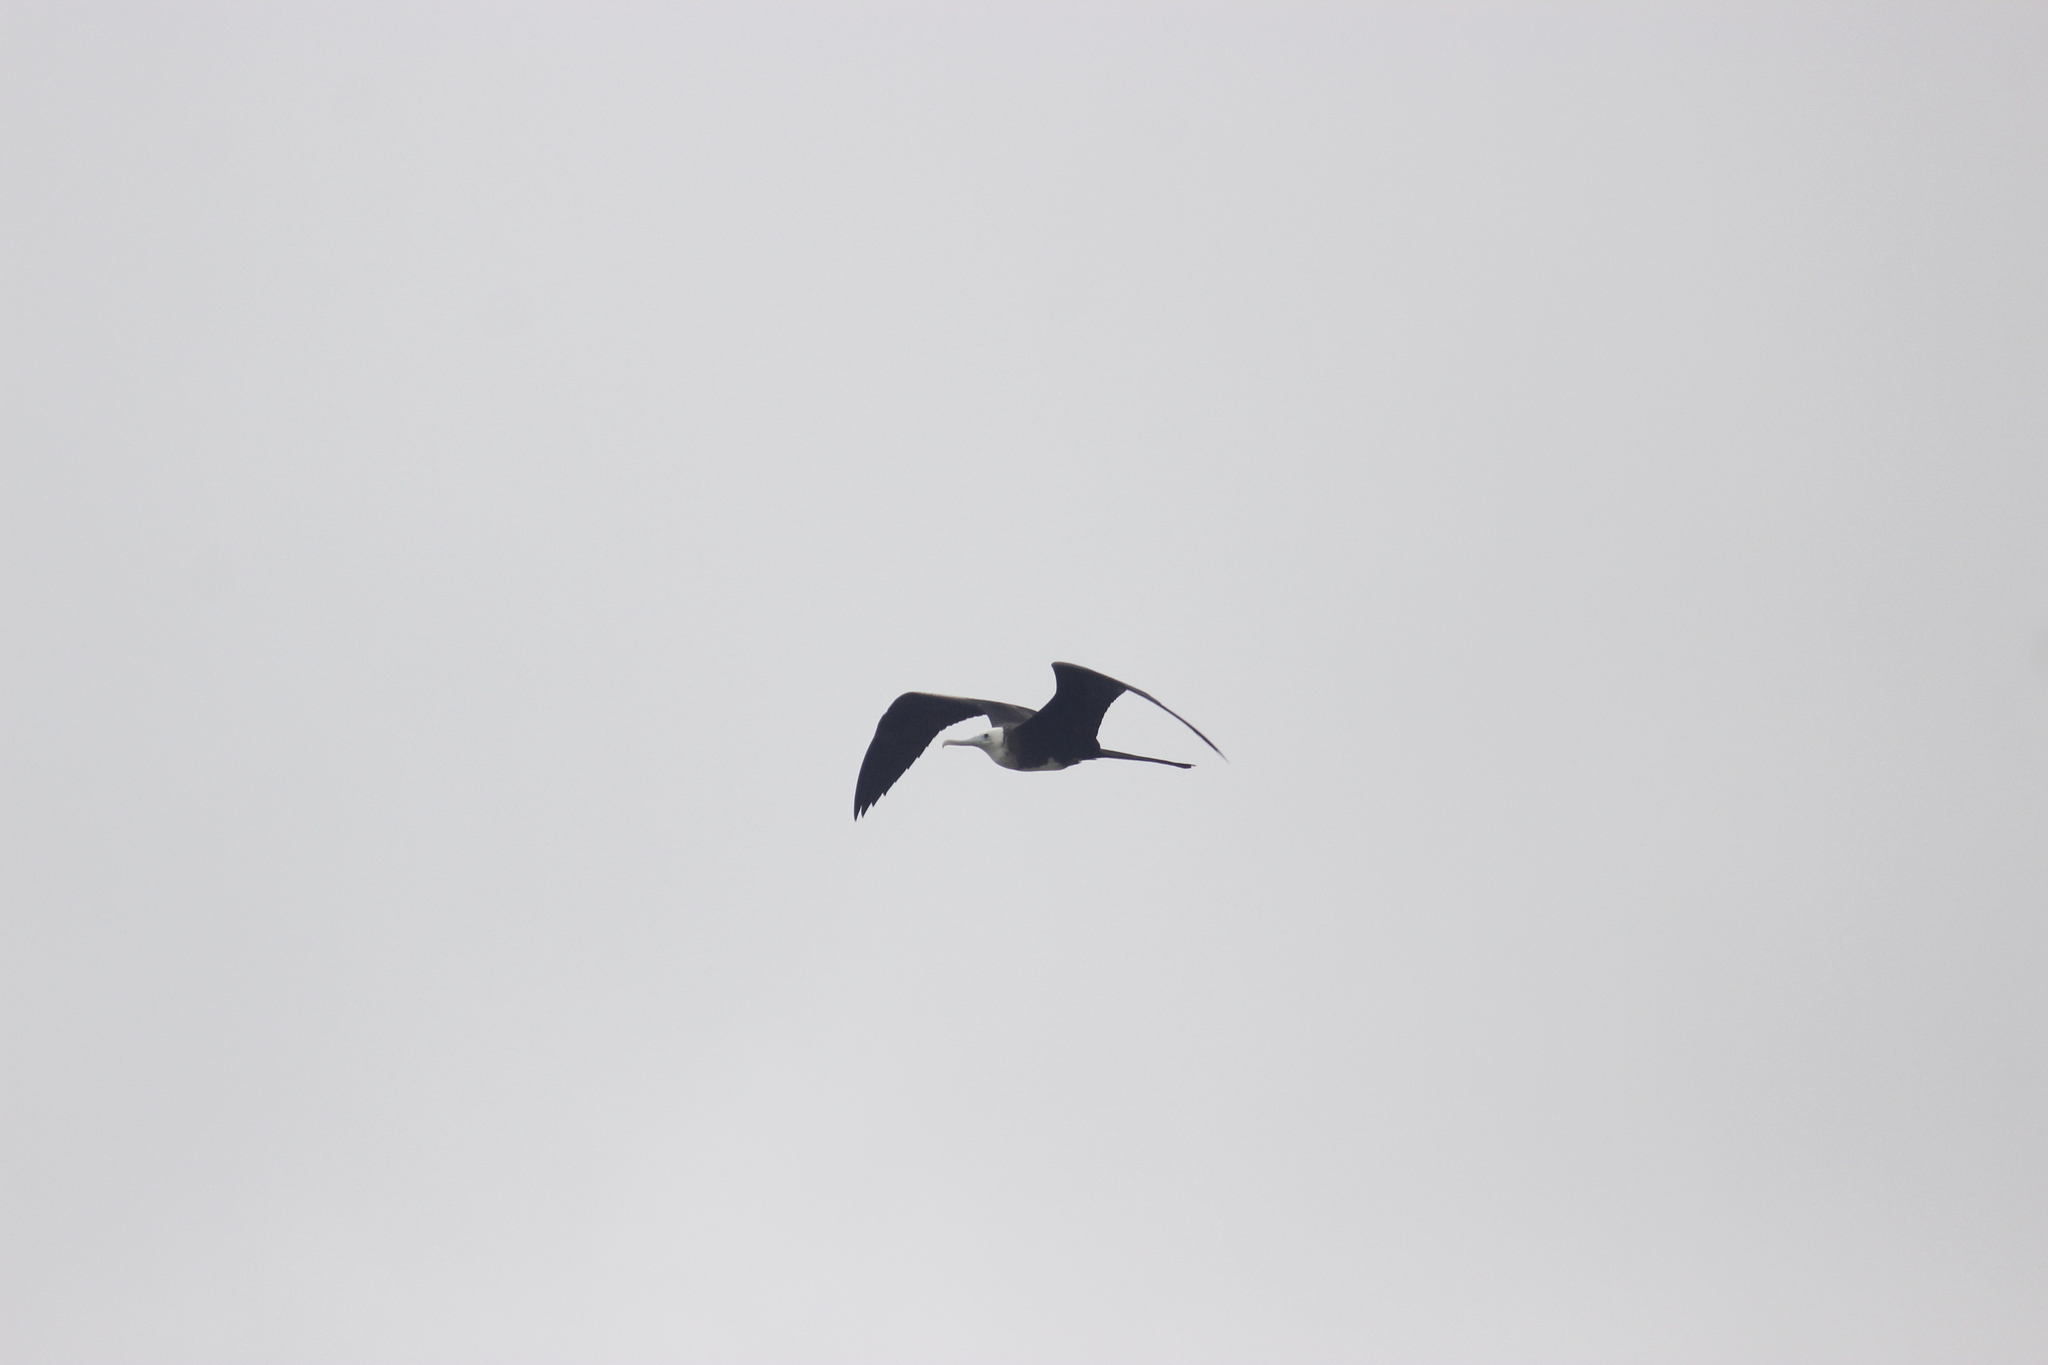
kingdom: Animalia
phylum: Chordata
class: Aves
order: Suliformes
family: Fregatidae
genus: Fregata
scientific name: Fregata magnificens
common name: Magnificent frigatebird
